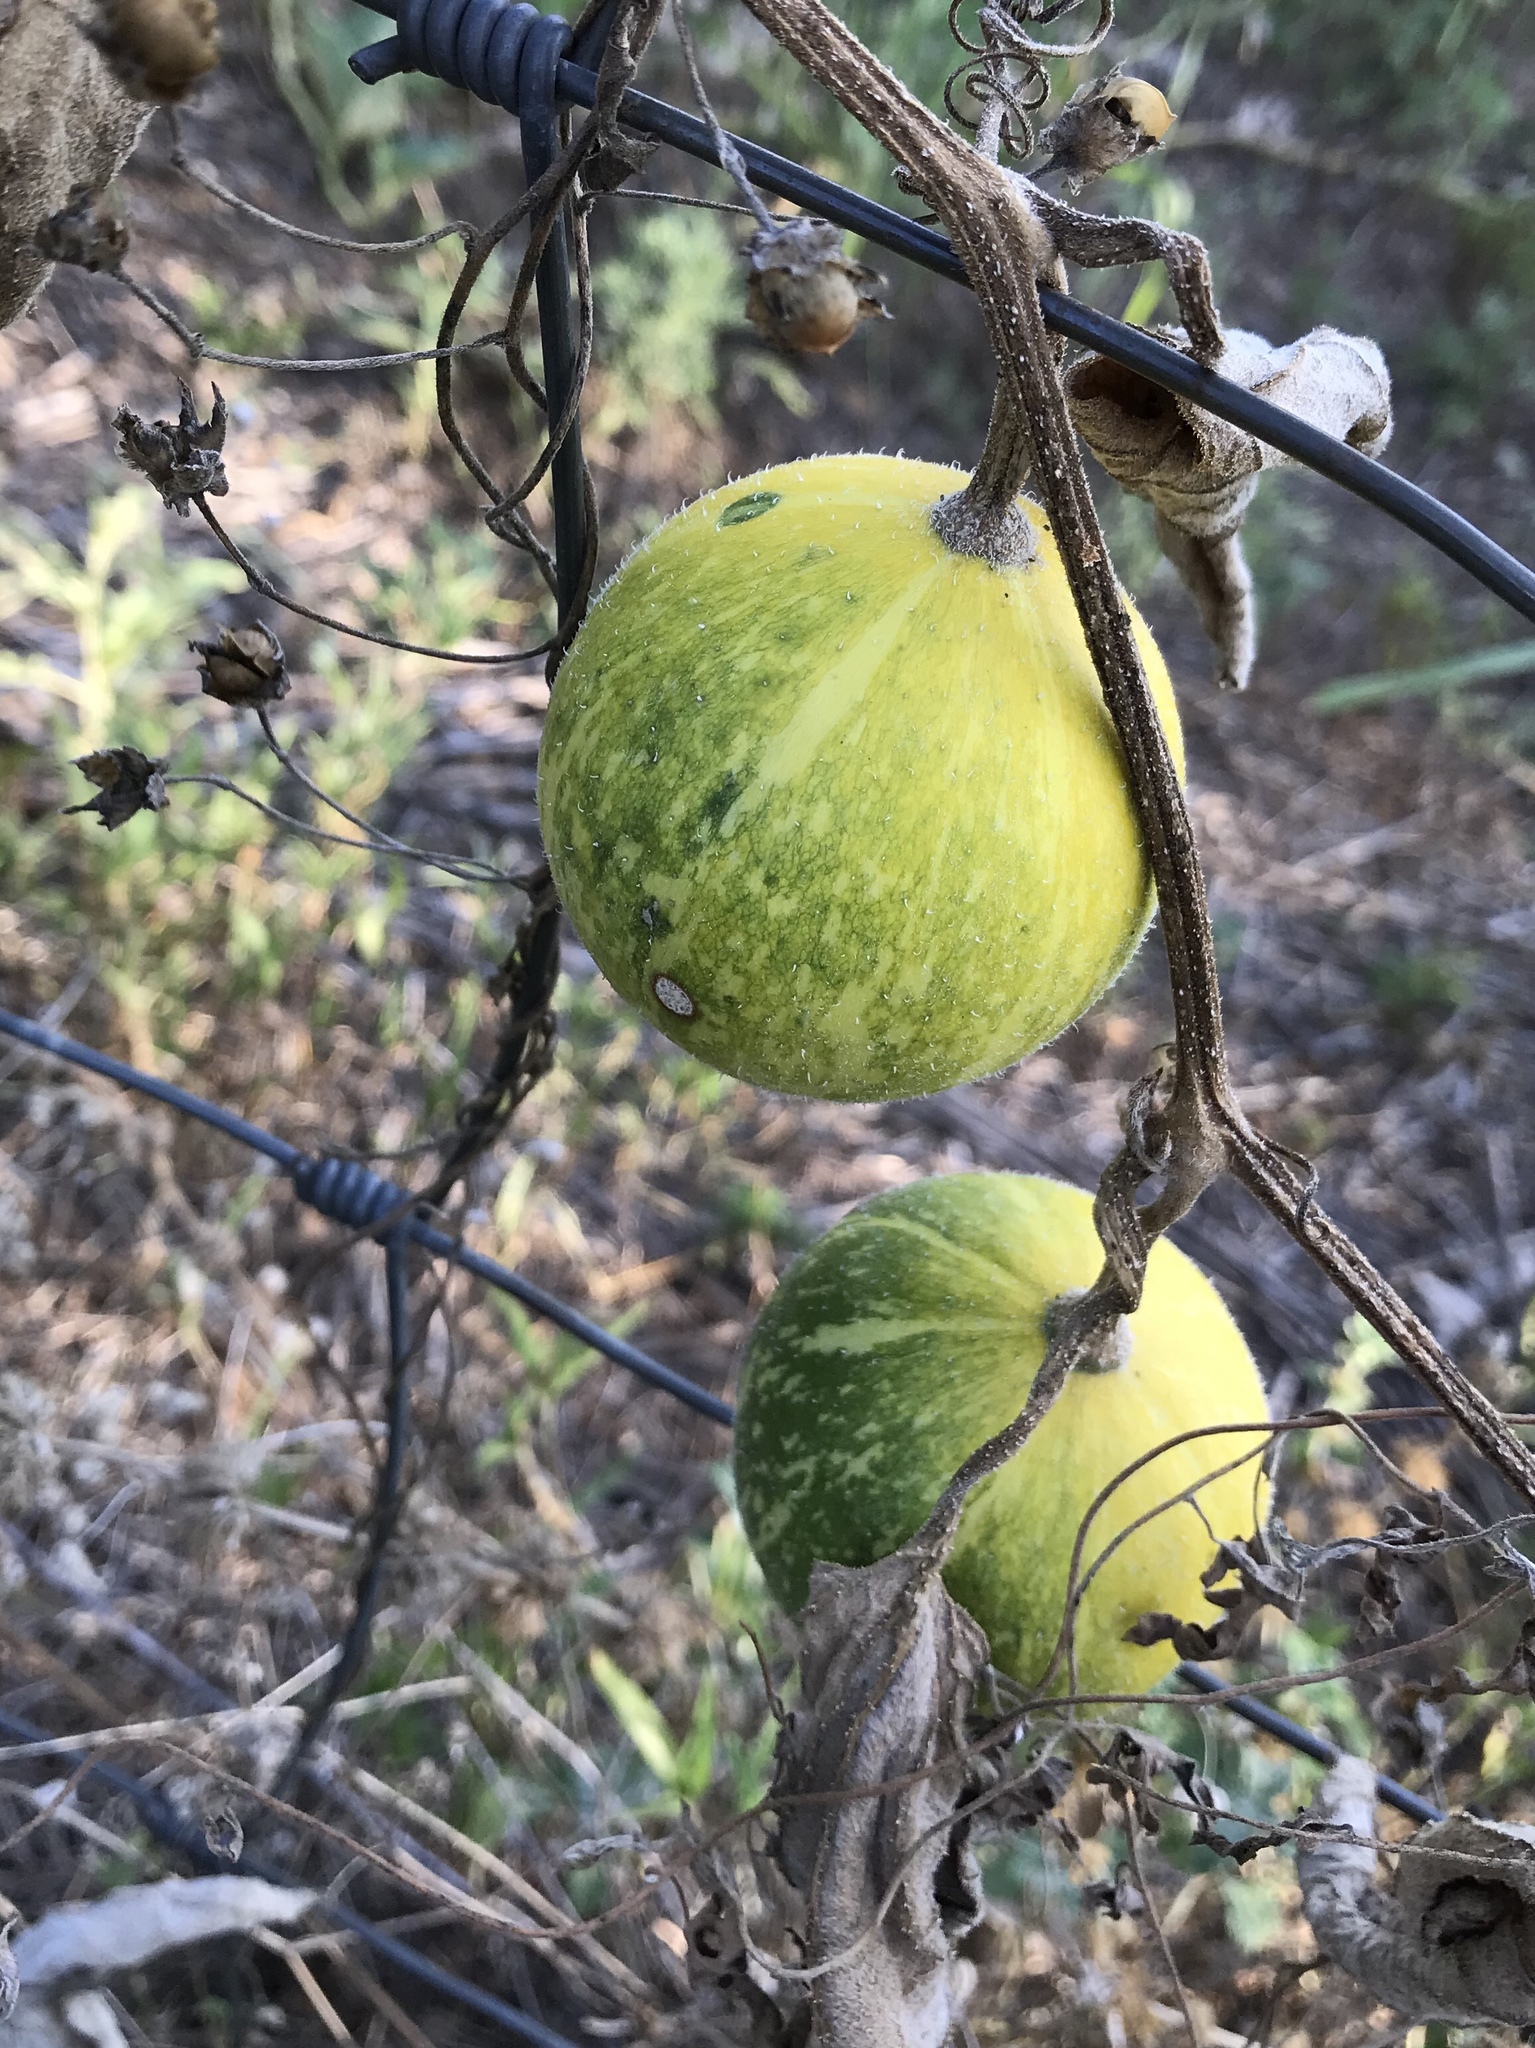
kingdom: Plantae
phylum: Tracheophyta
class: Magnoliopsida
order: Cucurbitales
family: Cucurbitaceae
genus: Cucurbita
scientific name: Cucurbita foetidissima
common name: Buffalo gourd
